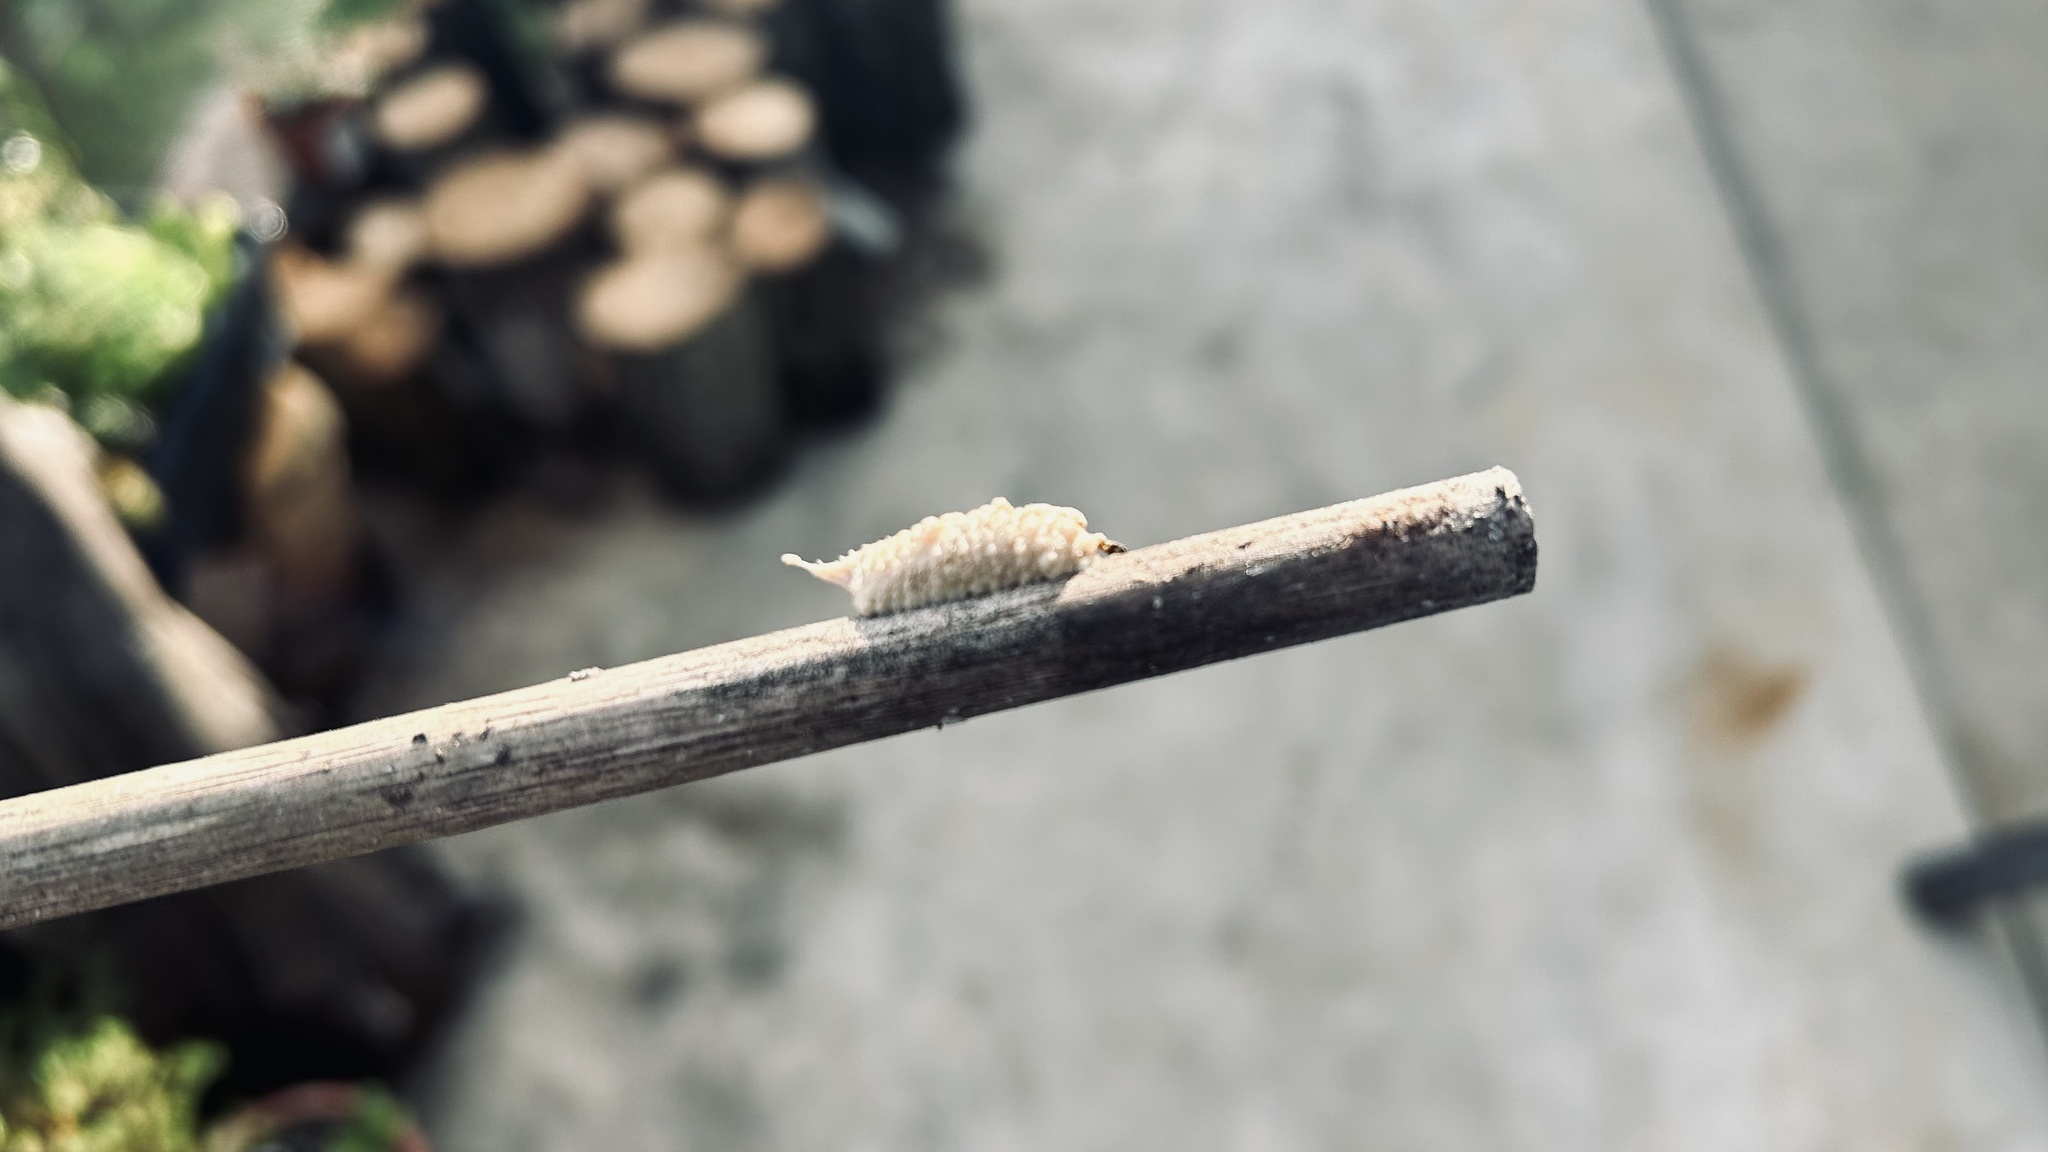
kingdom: Animalia
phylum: Arthropoda
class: Insecta
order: Mantodea
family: Miomantidae
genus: Miomantis
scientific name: Miomantis caffra
